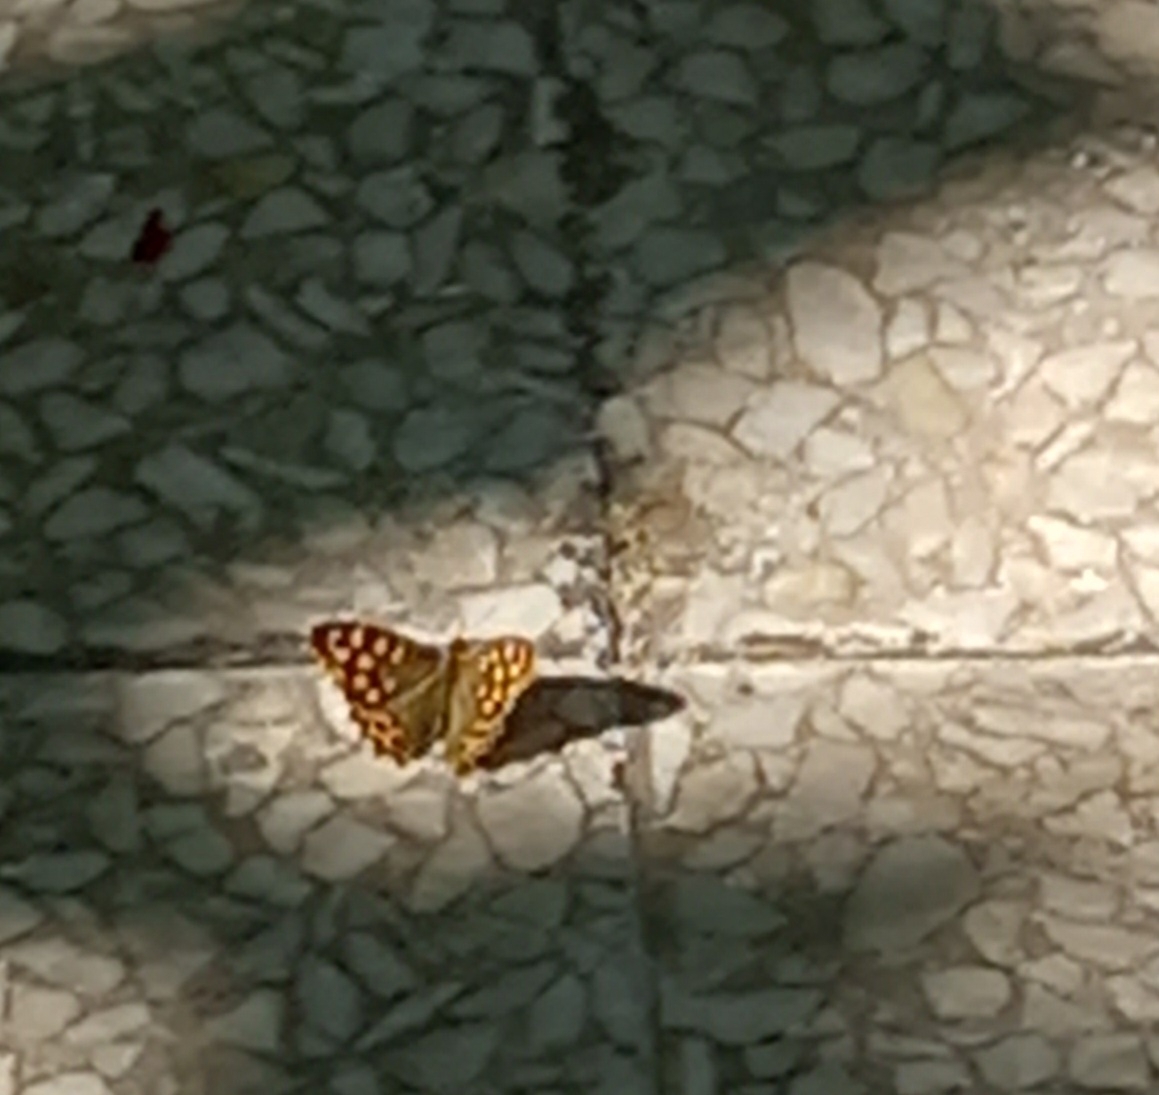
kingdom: Animalia
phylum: Arthropoda
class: Insecta
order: Lepidoptera
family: Nymphalidae
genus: Pararge
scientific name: Pararge aegeria
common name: Speckled wood
